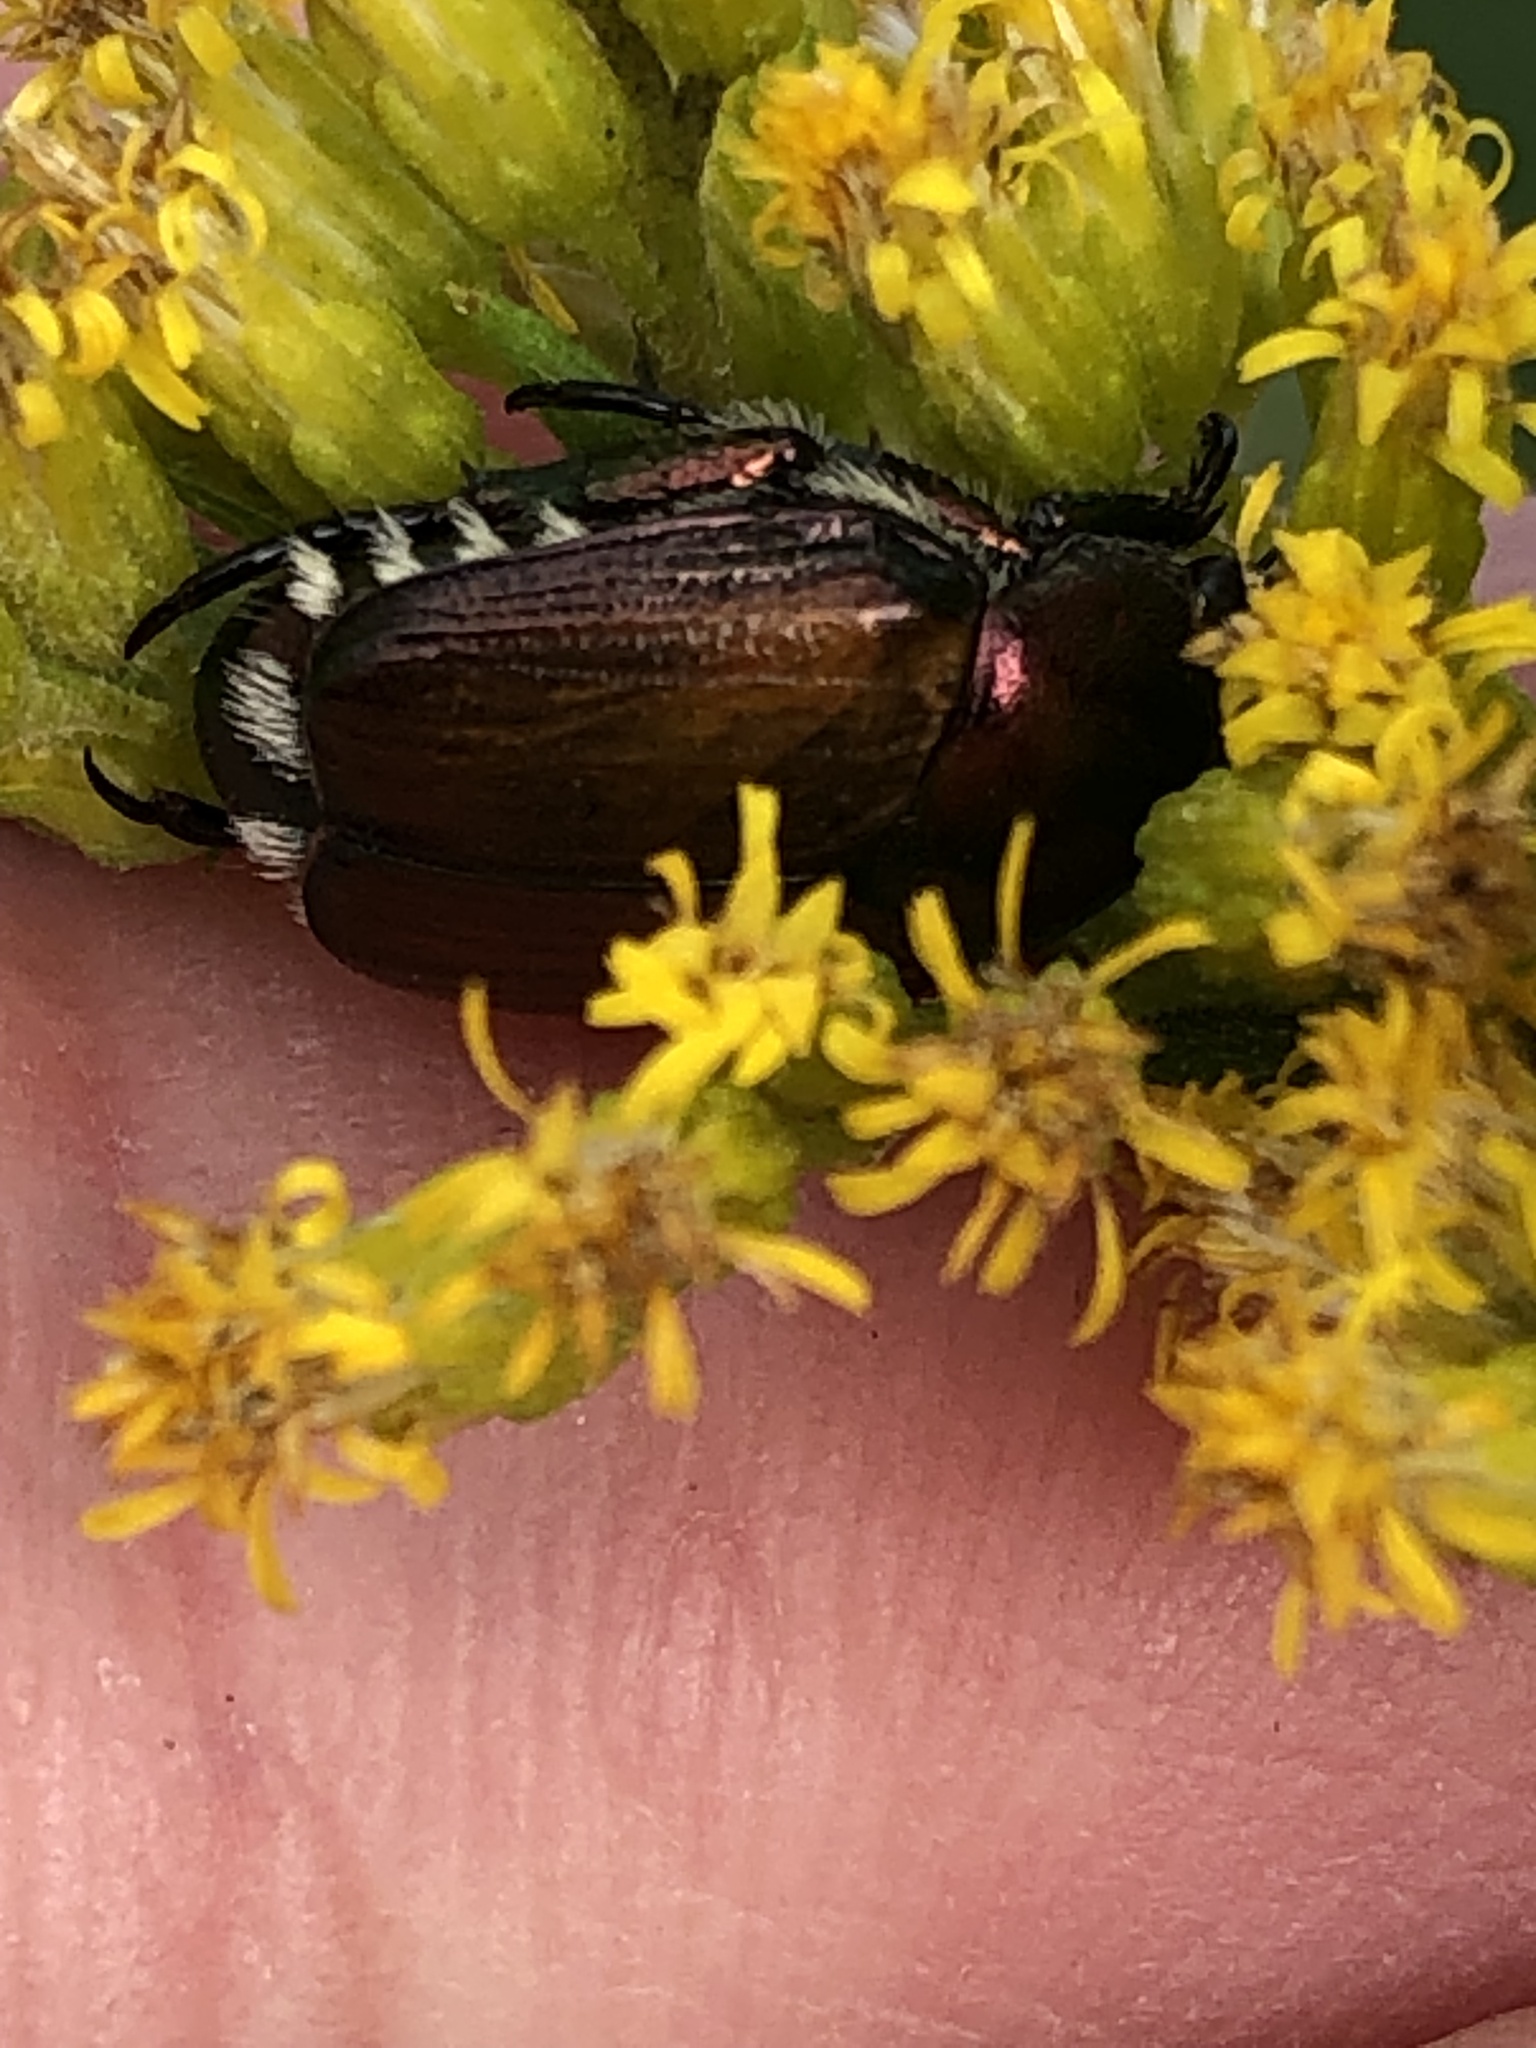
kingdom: Animalia
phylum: Arthropoda
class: Insecta
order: Coleoptera
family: Scarabaeidae
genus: Popillia
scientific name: Popillia japonica
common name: Japanese beetle
